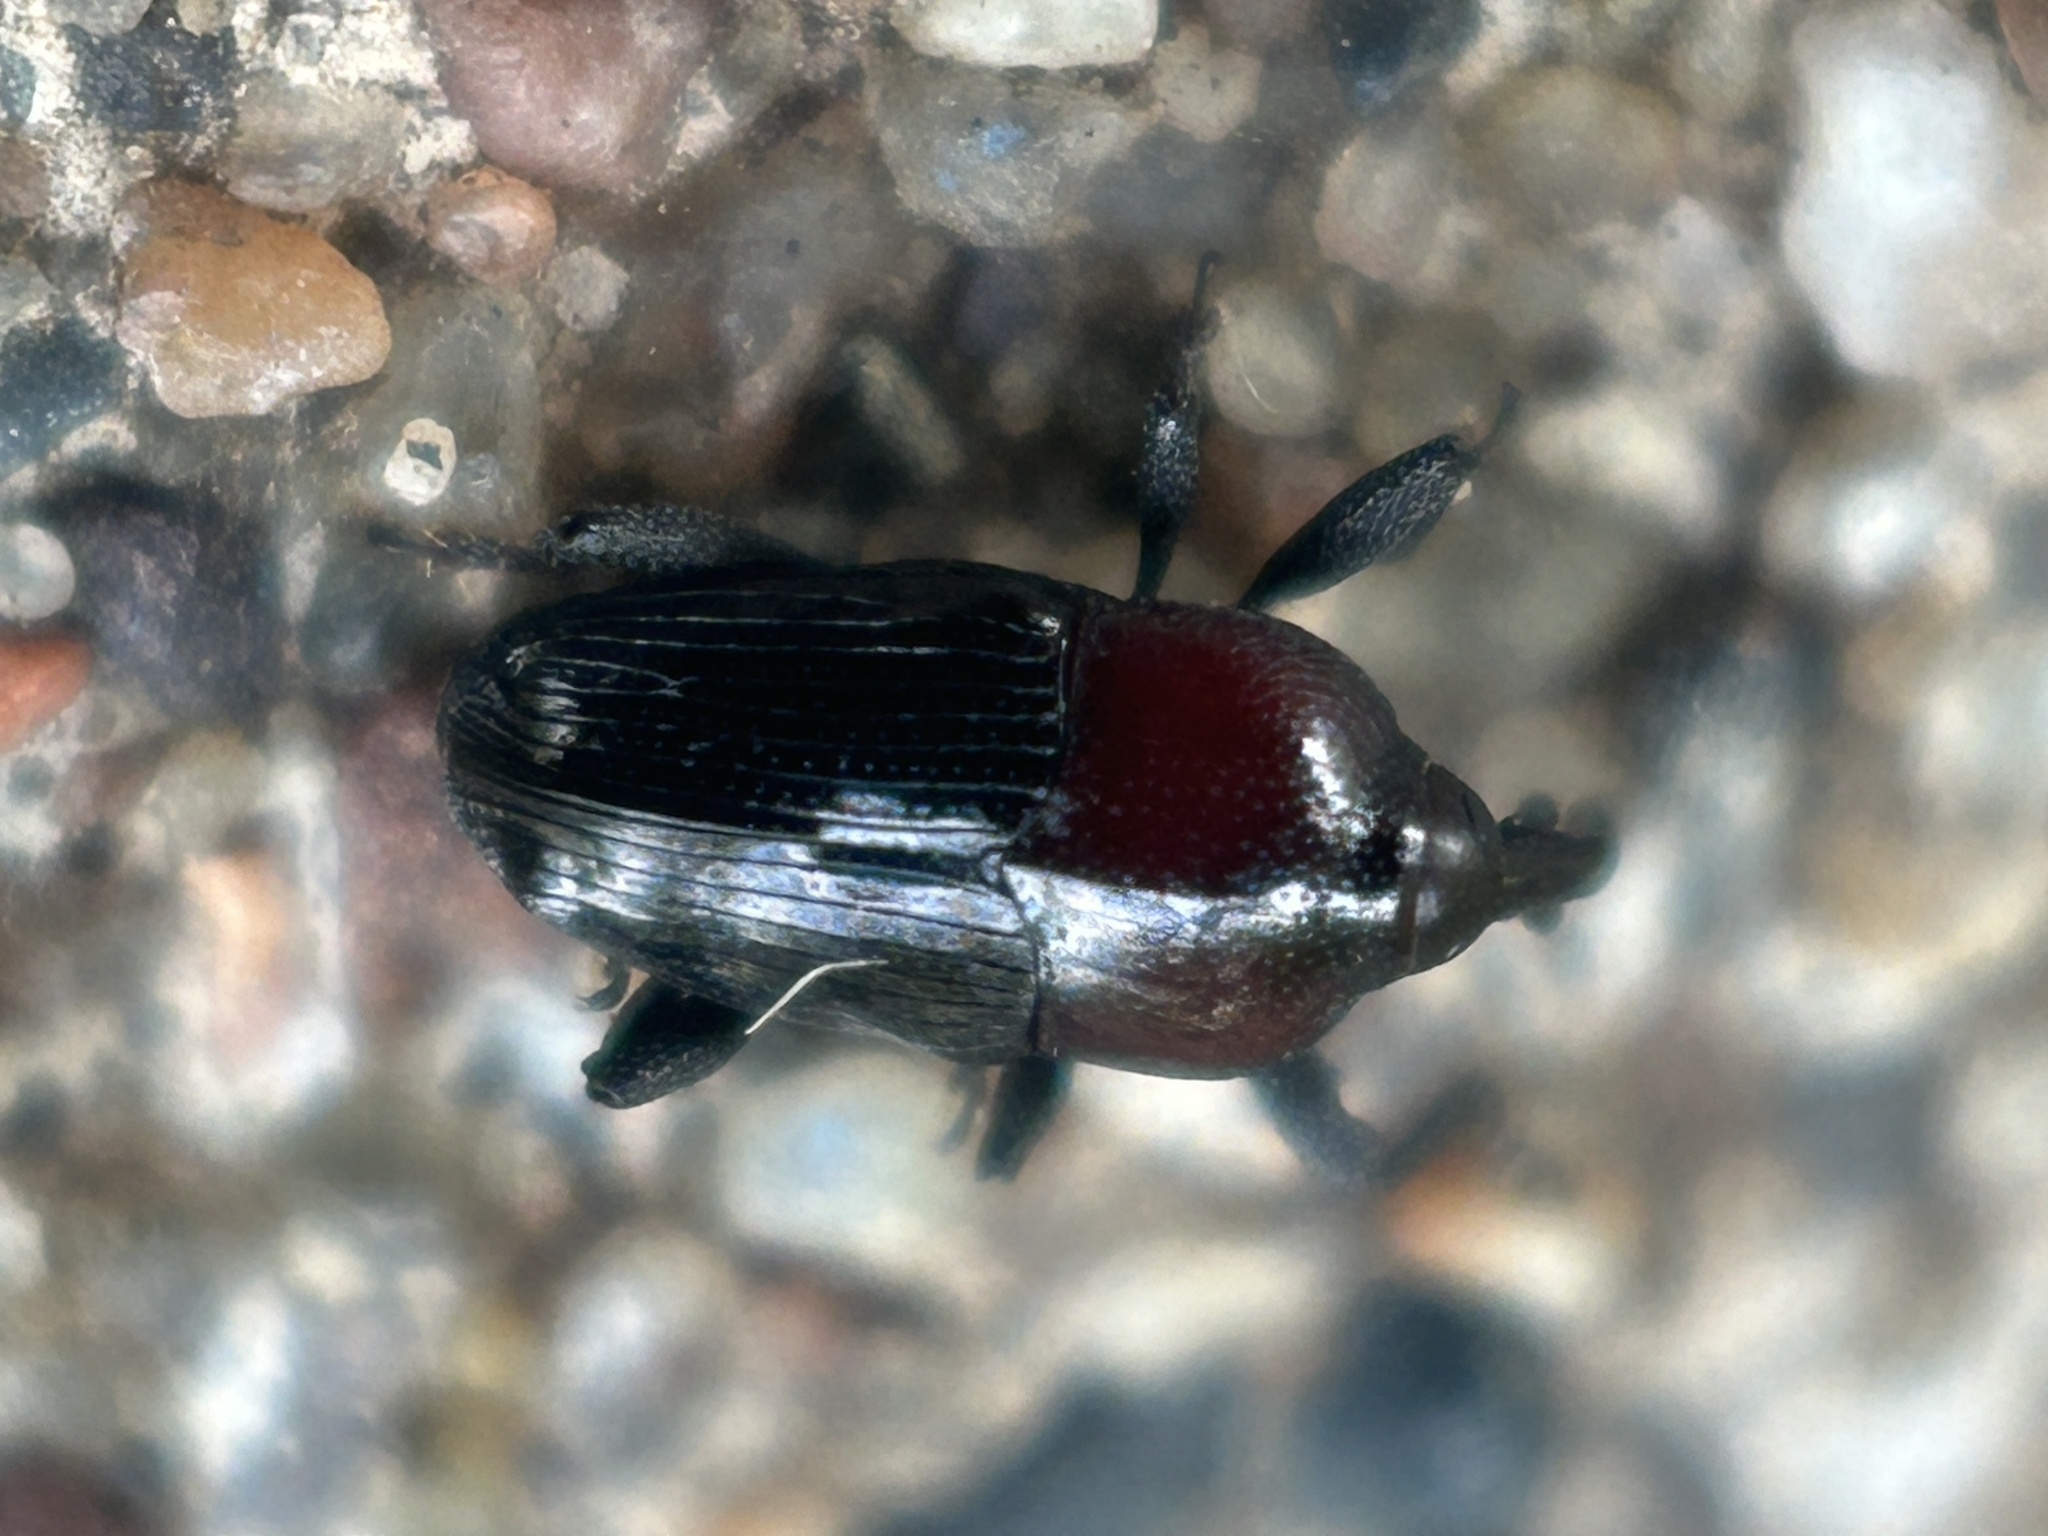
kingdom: Animalia
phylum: Arthropoda
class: Insecta
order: Coleoptera
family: Curculionidae
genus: Madarellus
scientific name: Madarellus undulatus
